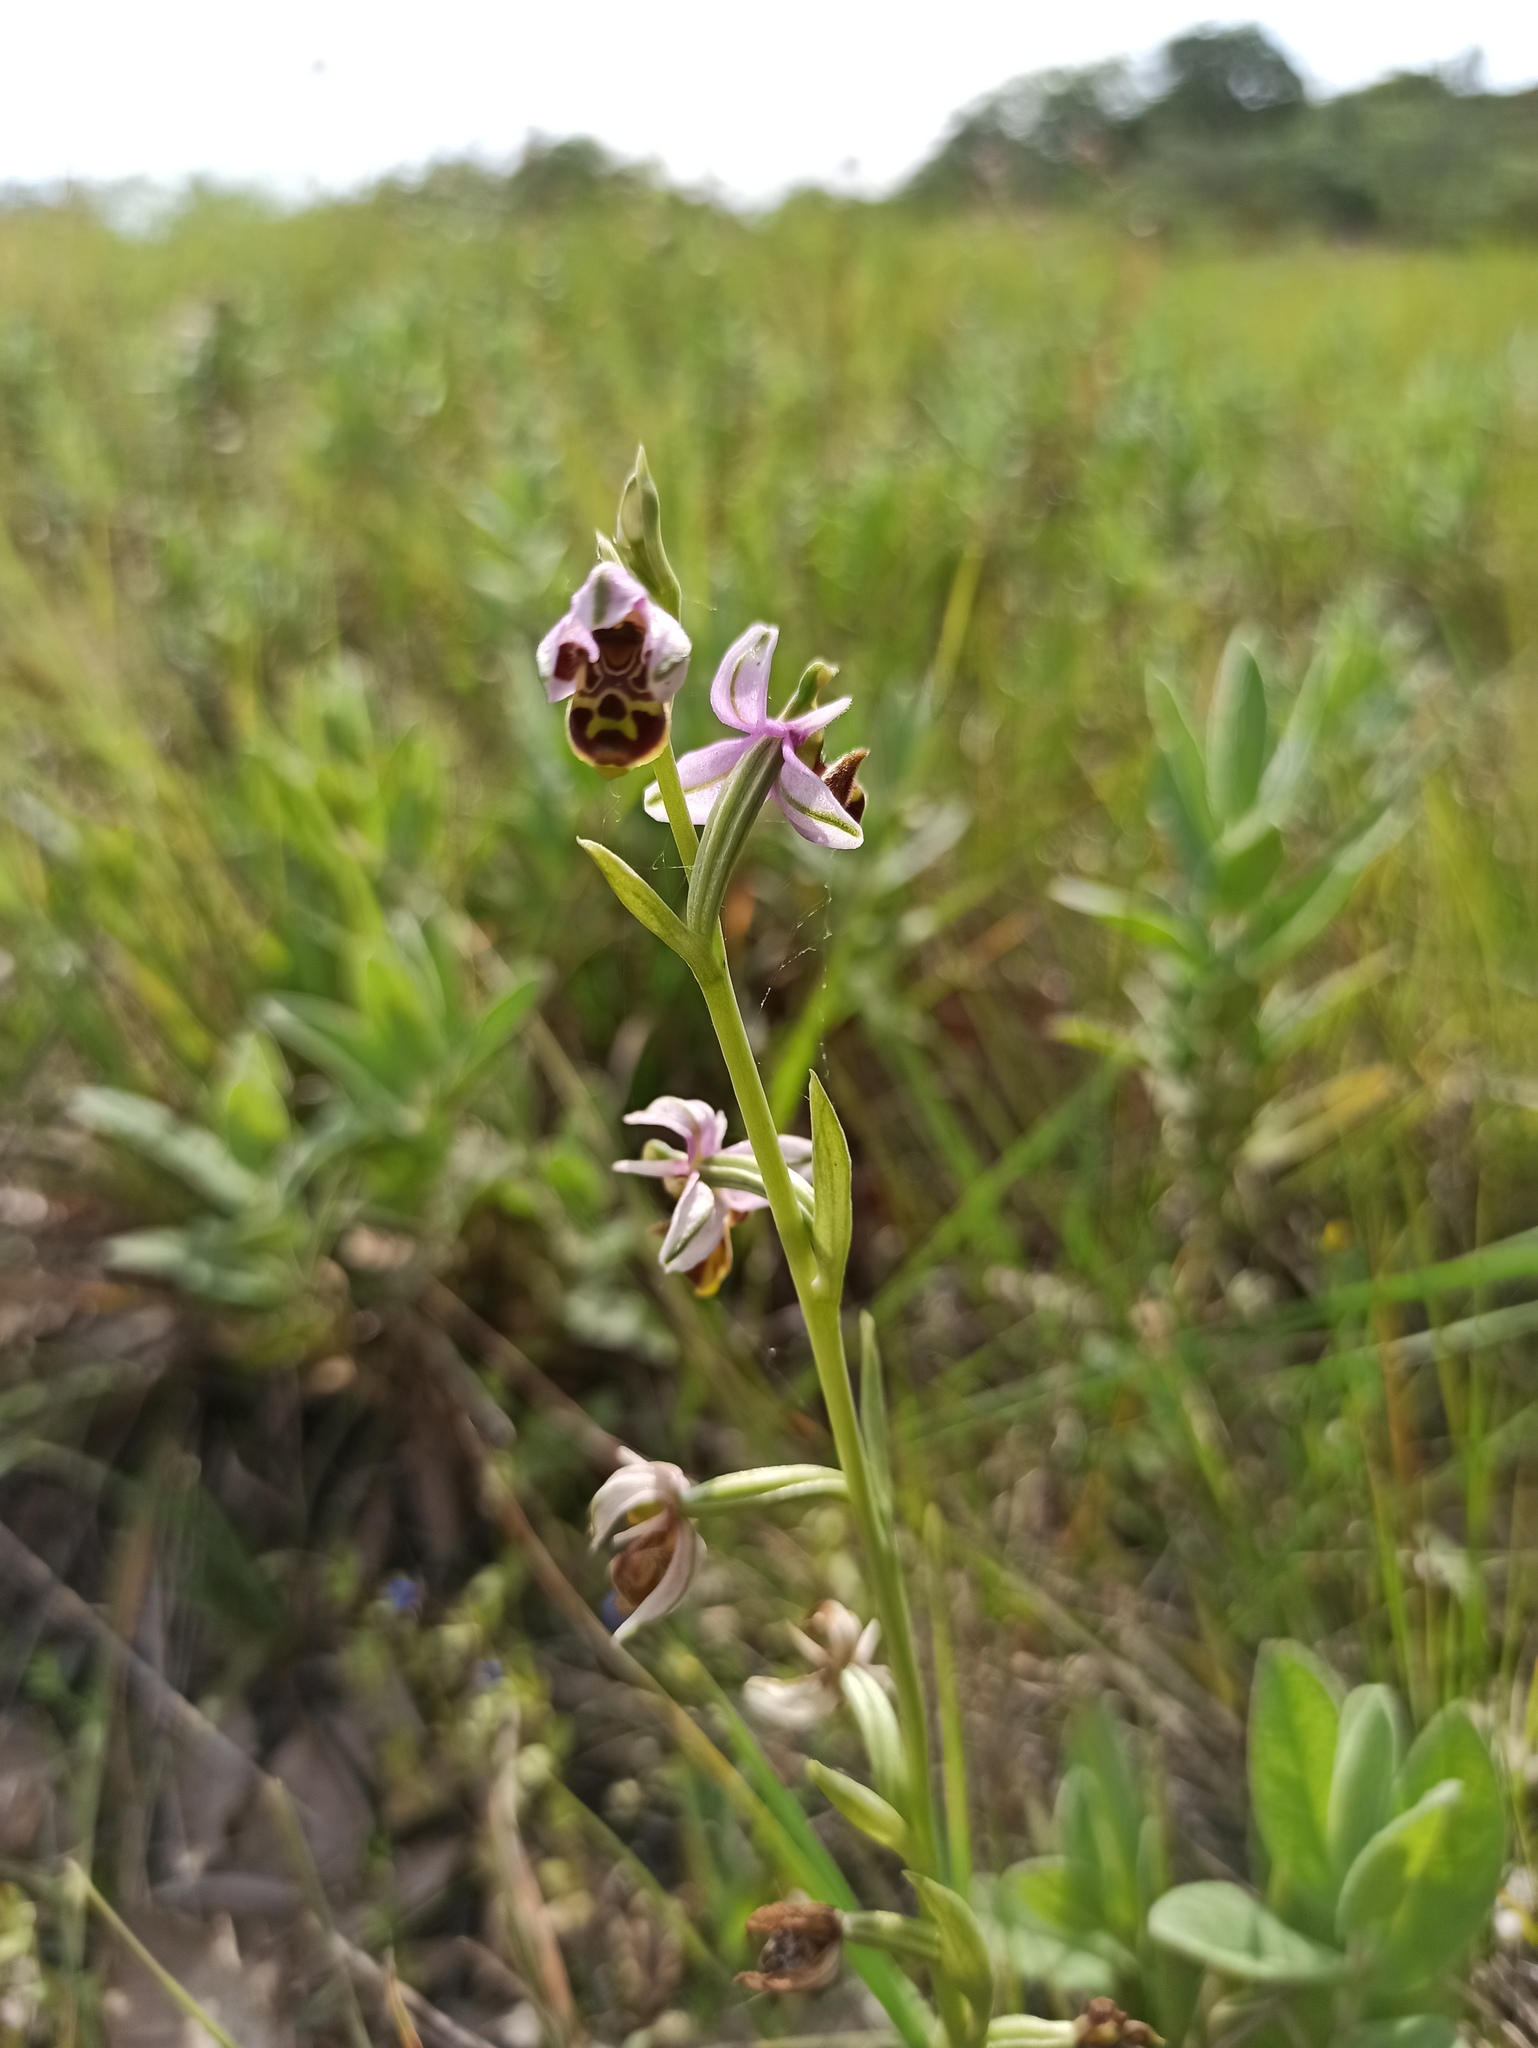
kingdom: Plantae
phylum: Tracheophyta
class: Liliopsida
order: Asparagales
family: Orchidaceae
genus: Ophrys
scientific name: Ophrys scolopax
